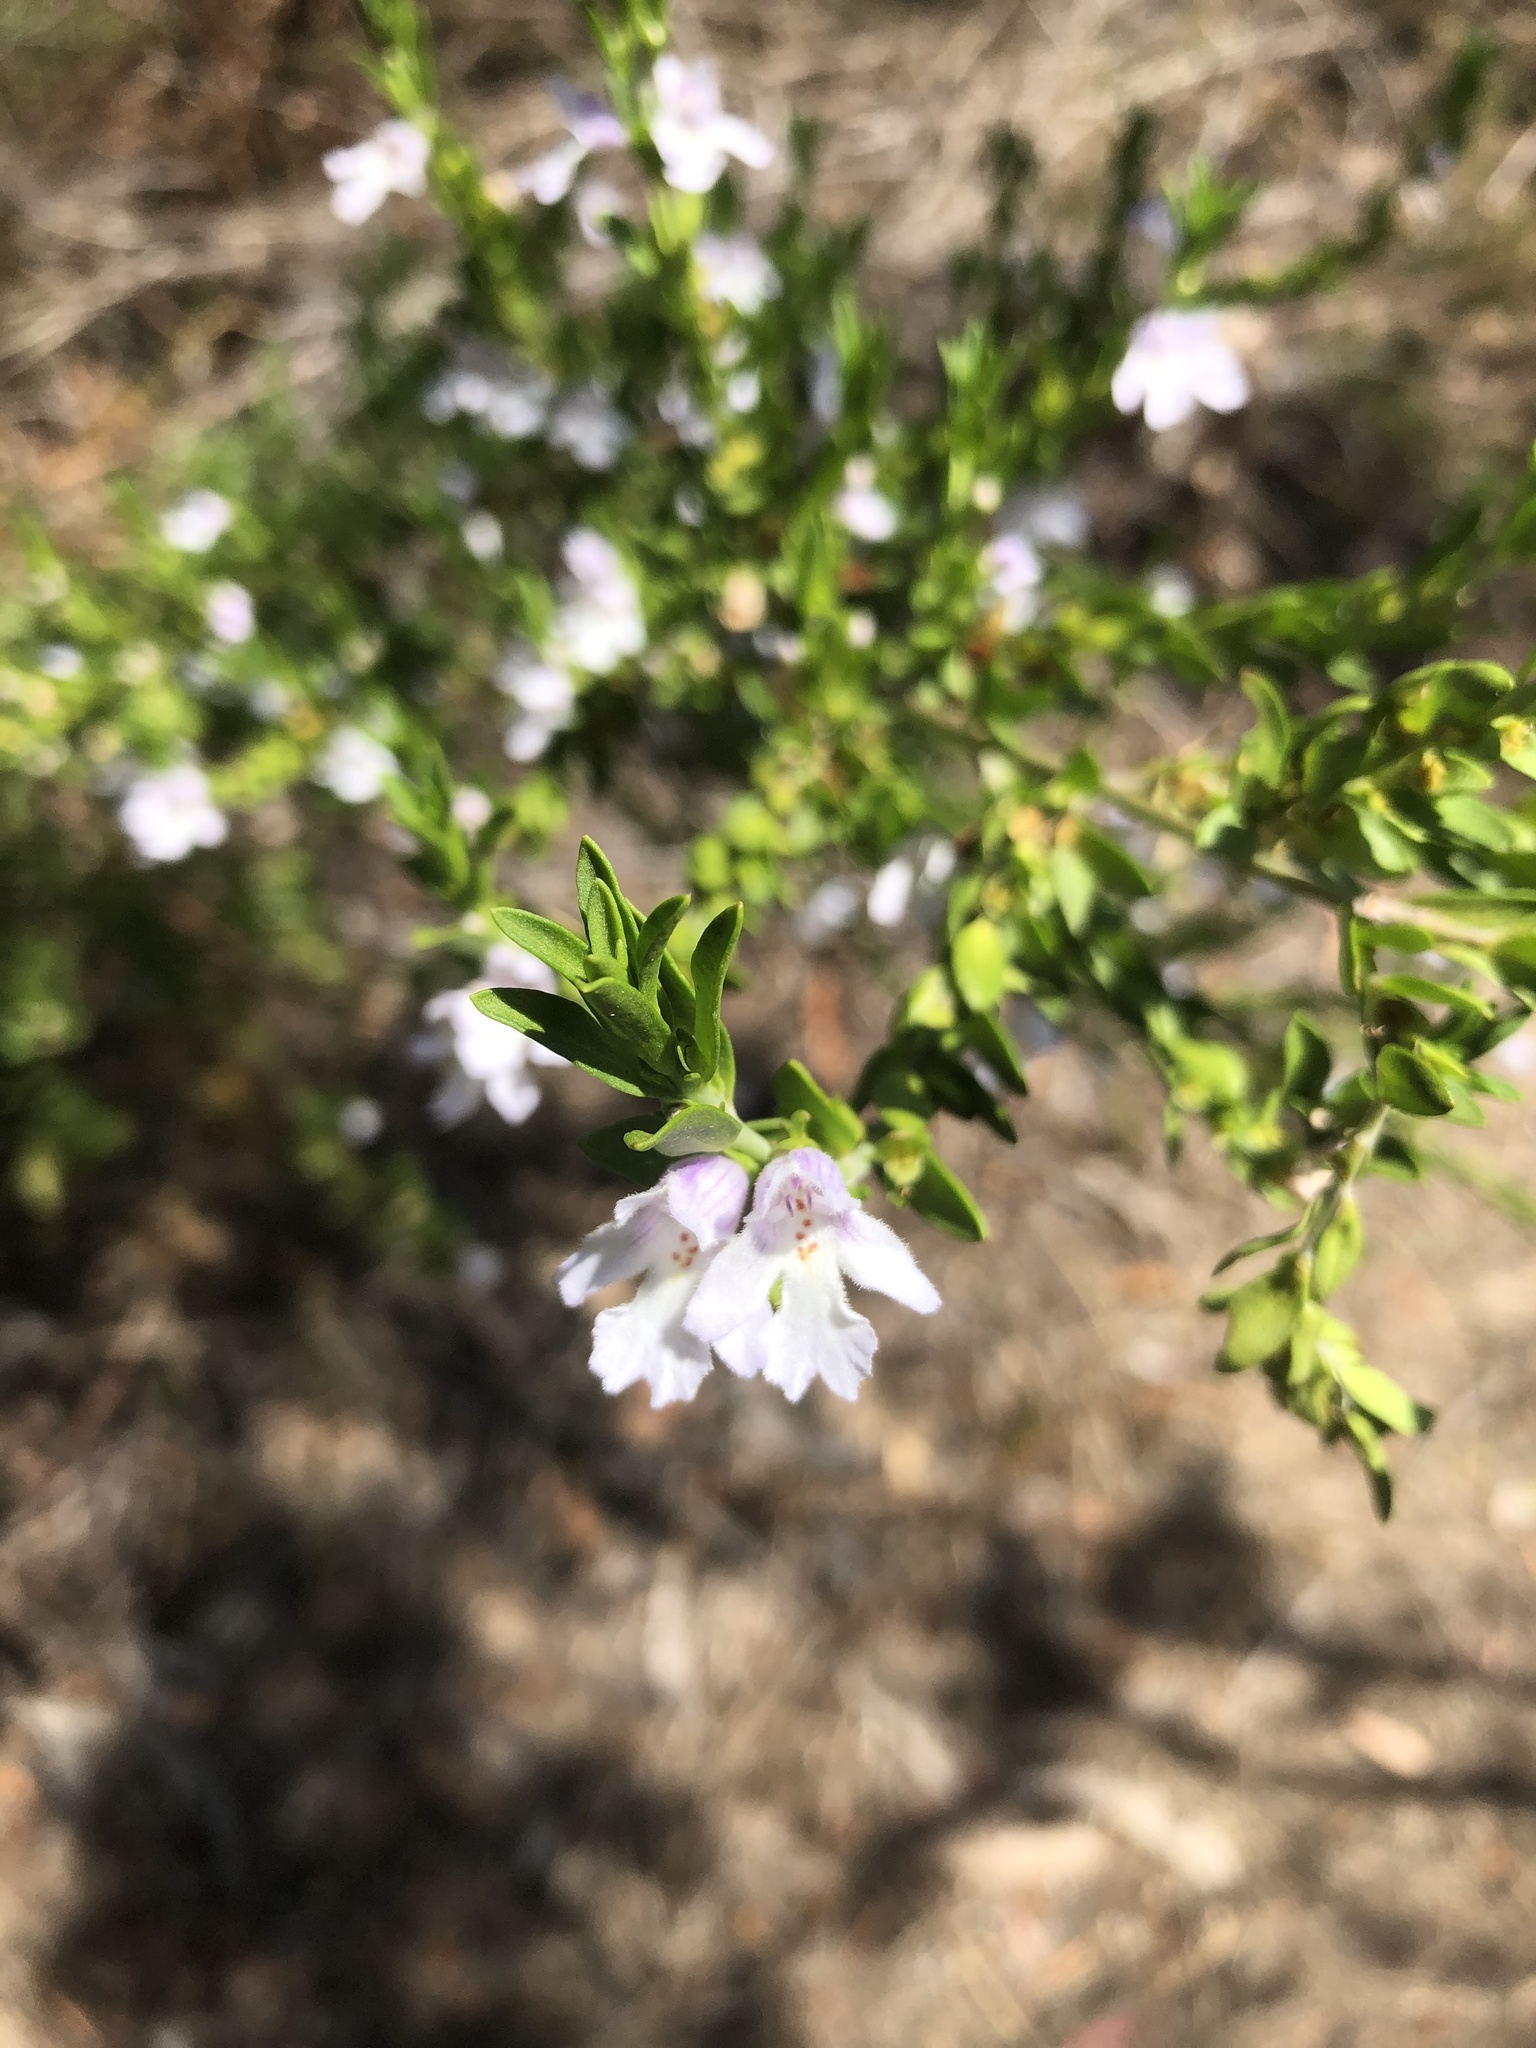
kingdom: Plantae
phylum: Tracheophyta
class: Magnoliopsida
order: Lamiales
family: Lamiaceae
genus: Prostanthera
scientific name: Prostanthera behriana
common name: Downy mintbush
